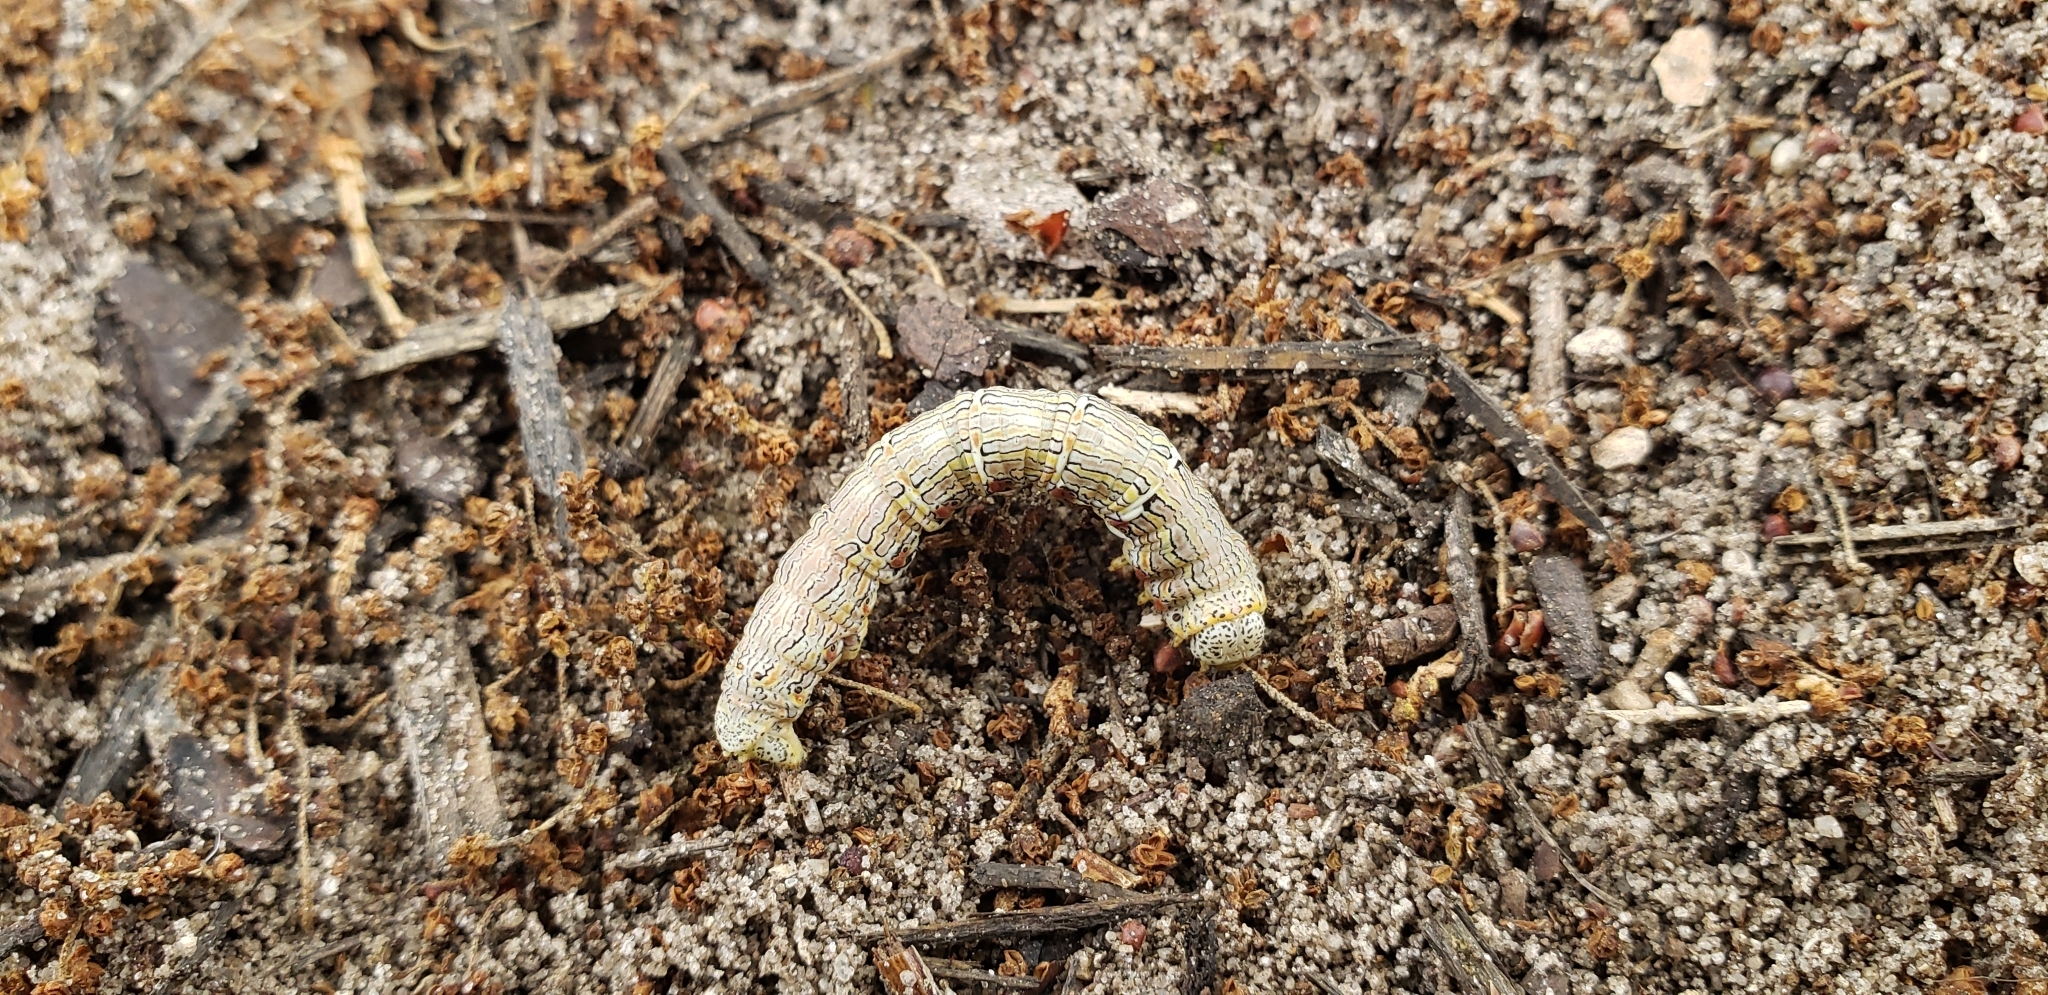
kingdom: Animalia
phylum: Arthropoda
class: Insecta
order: Lepidoptera
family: Geometridae
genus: Lycia
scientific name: Lycia ypsilon
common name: Wooly gray
